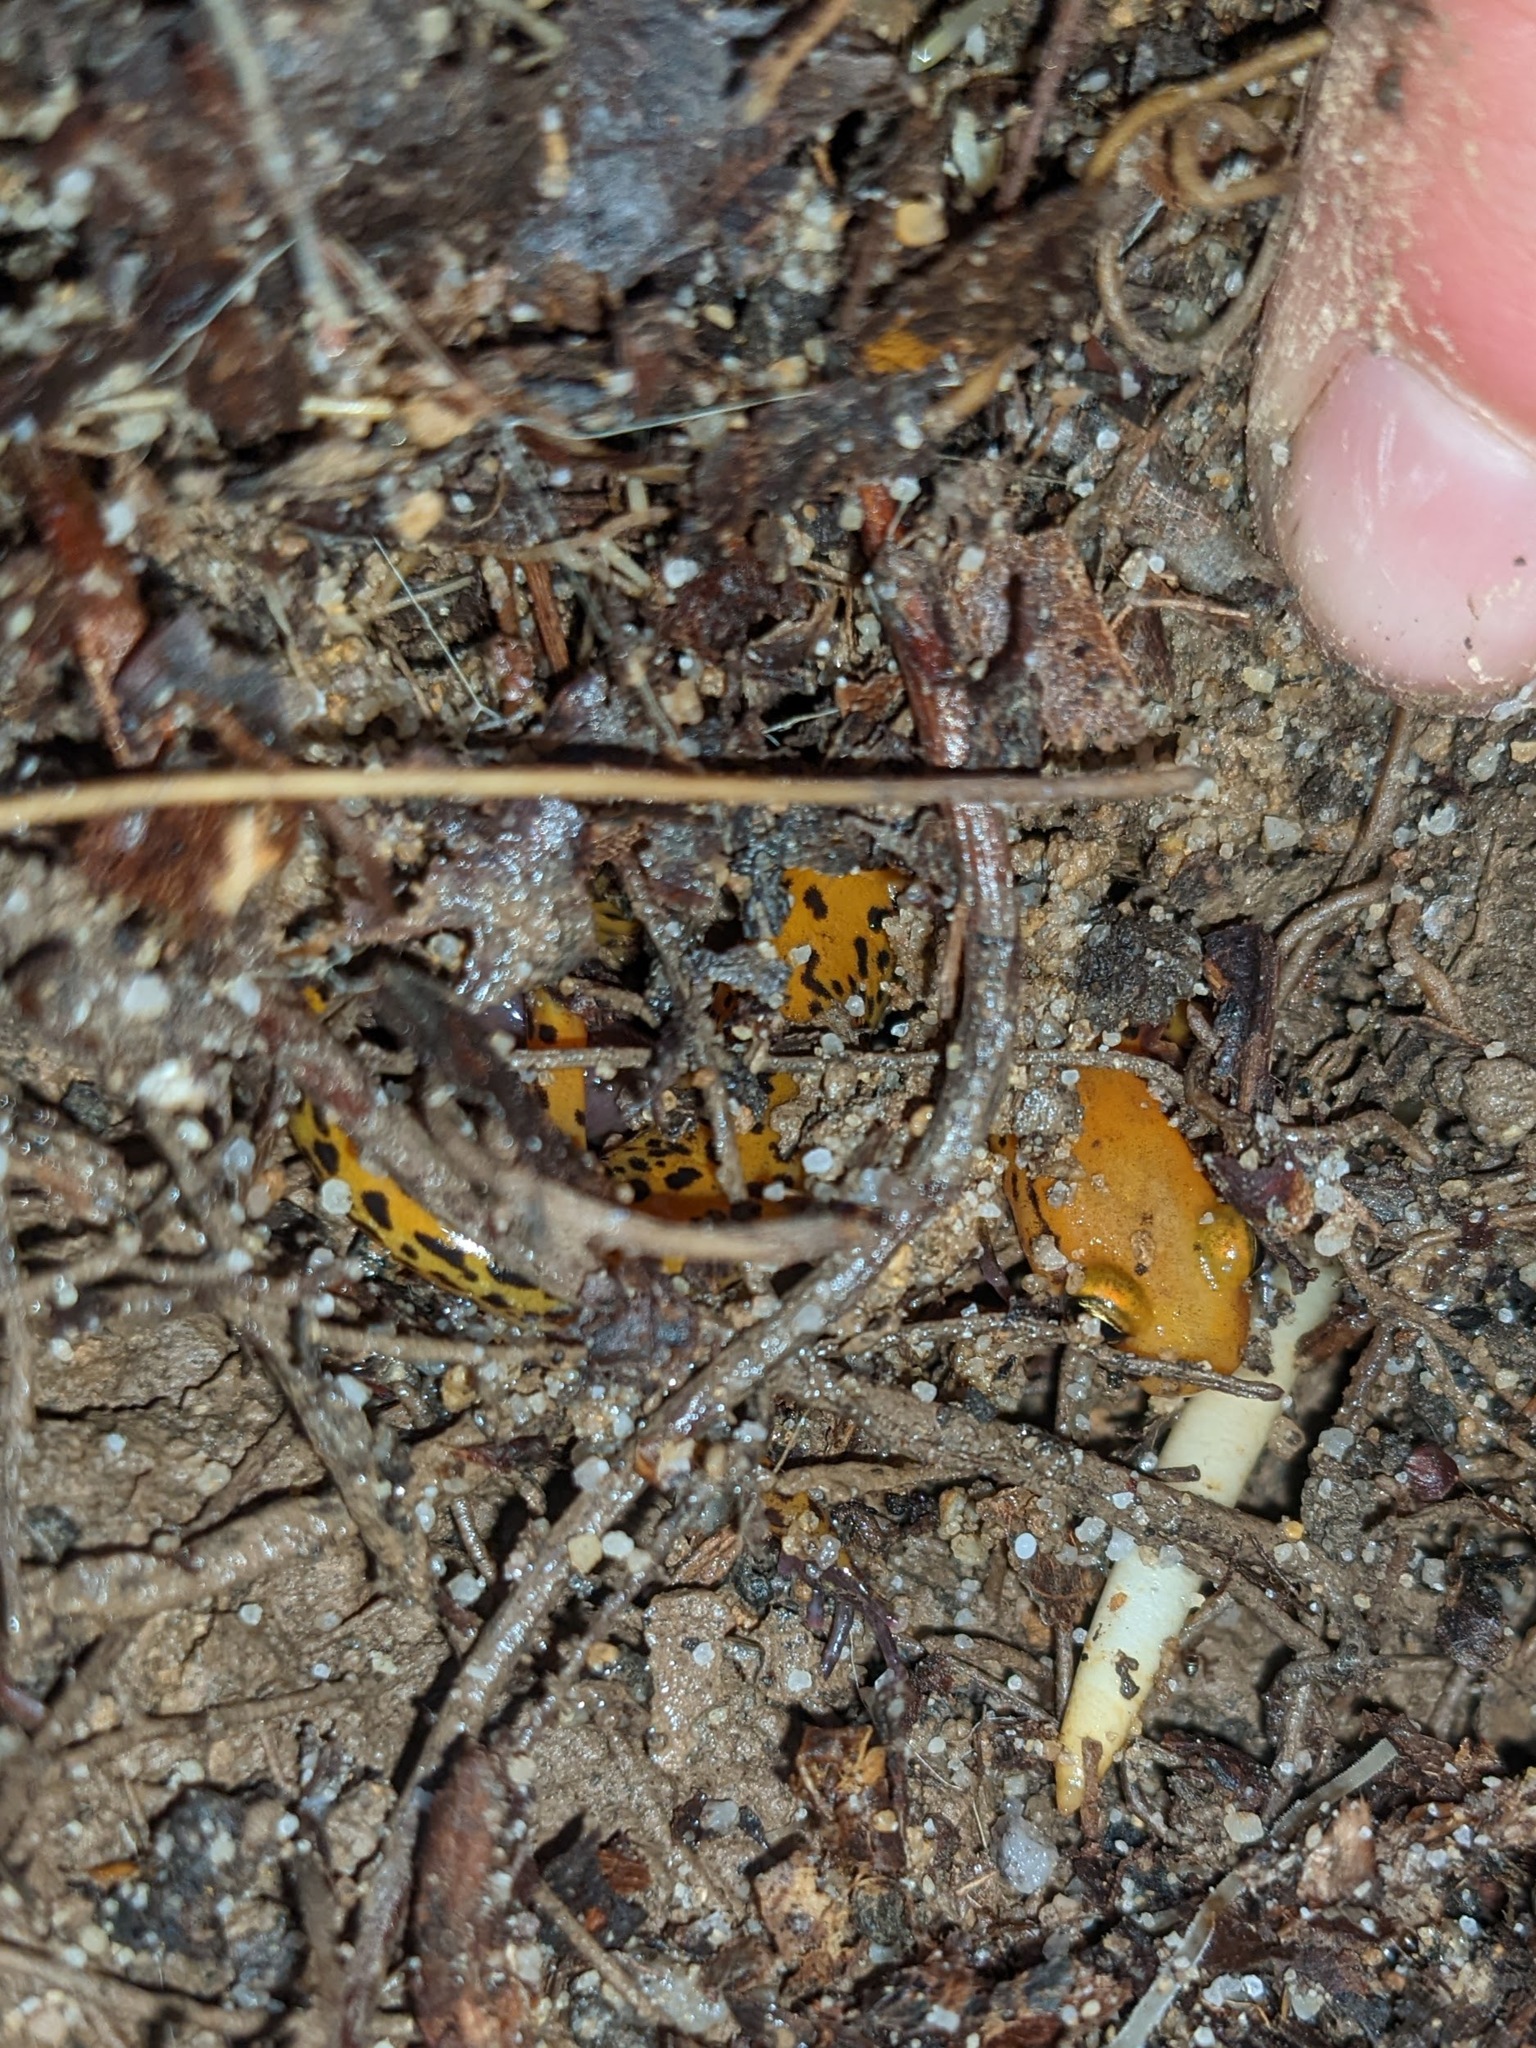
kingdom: Animalia
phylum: Chordata
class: Amphibia
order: Caudata
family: Plethodontidae
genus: Eurycea
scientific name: Eurycea longicauda
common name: Long-tailed salamander
